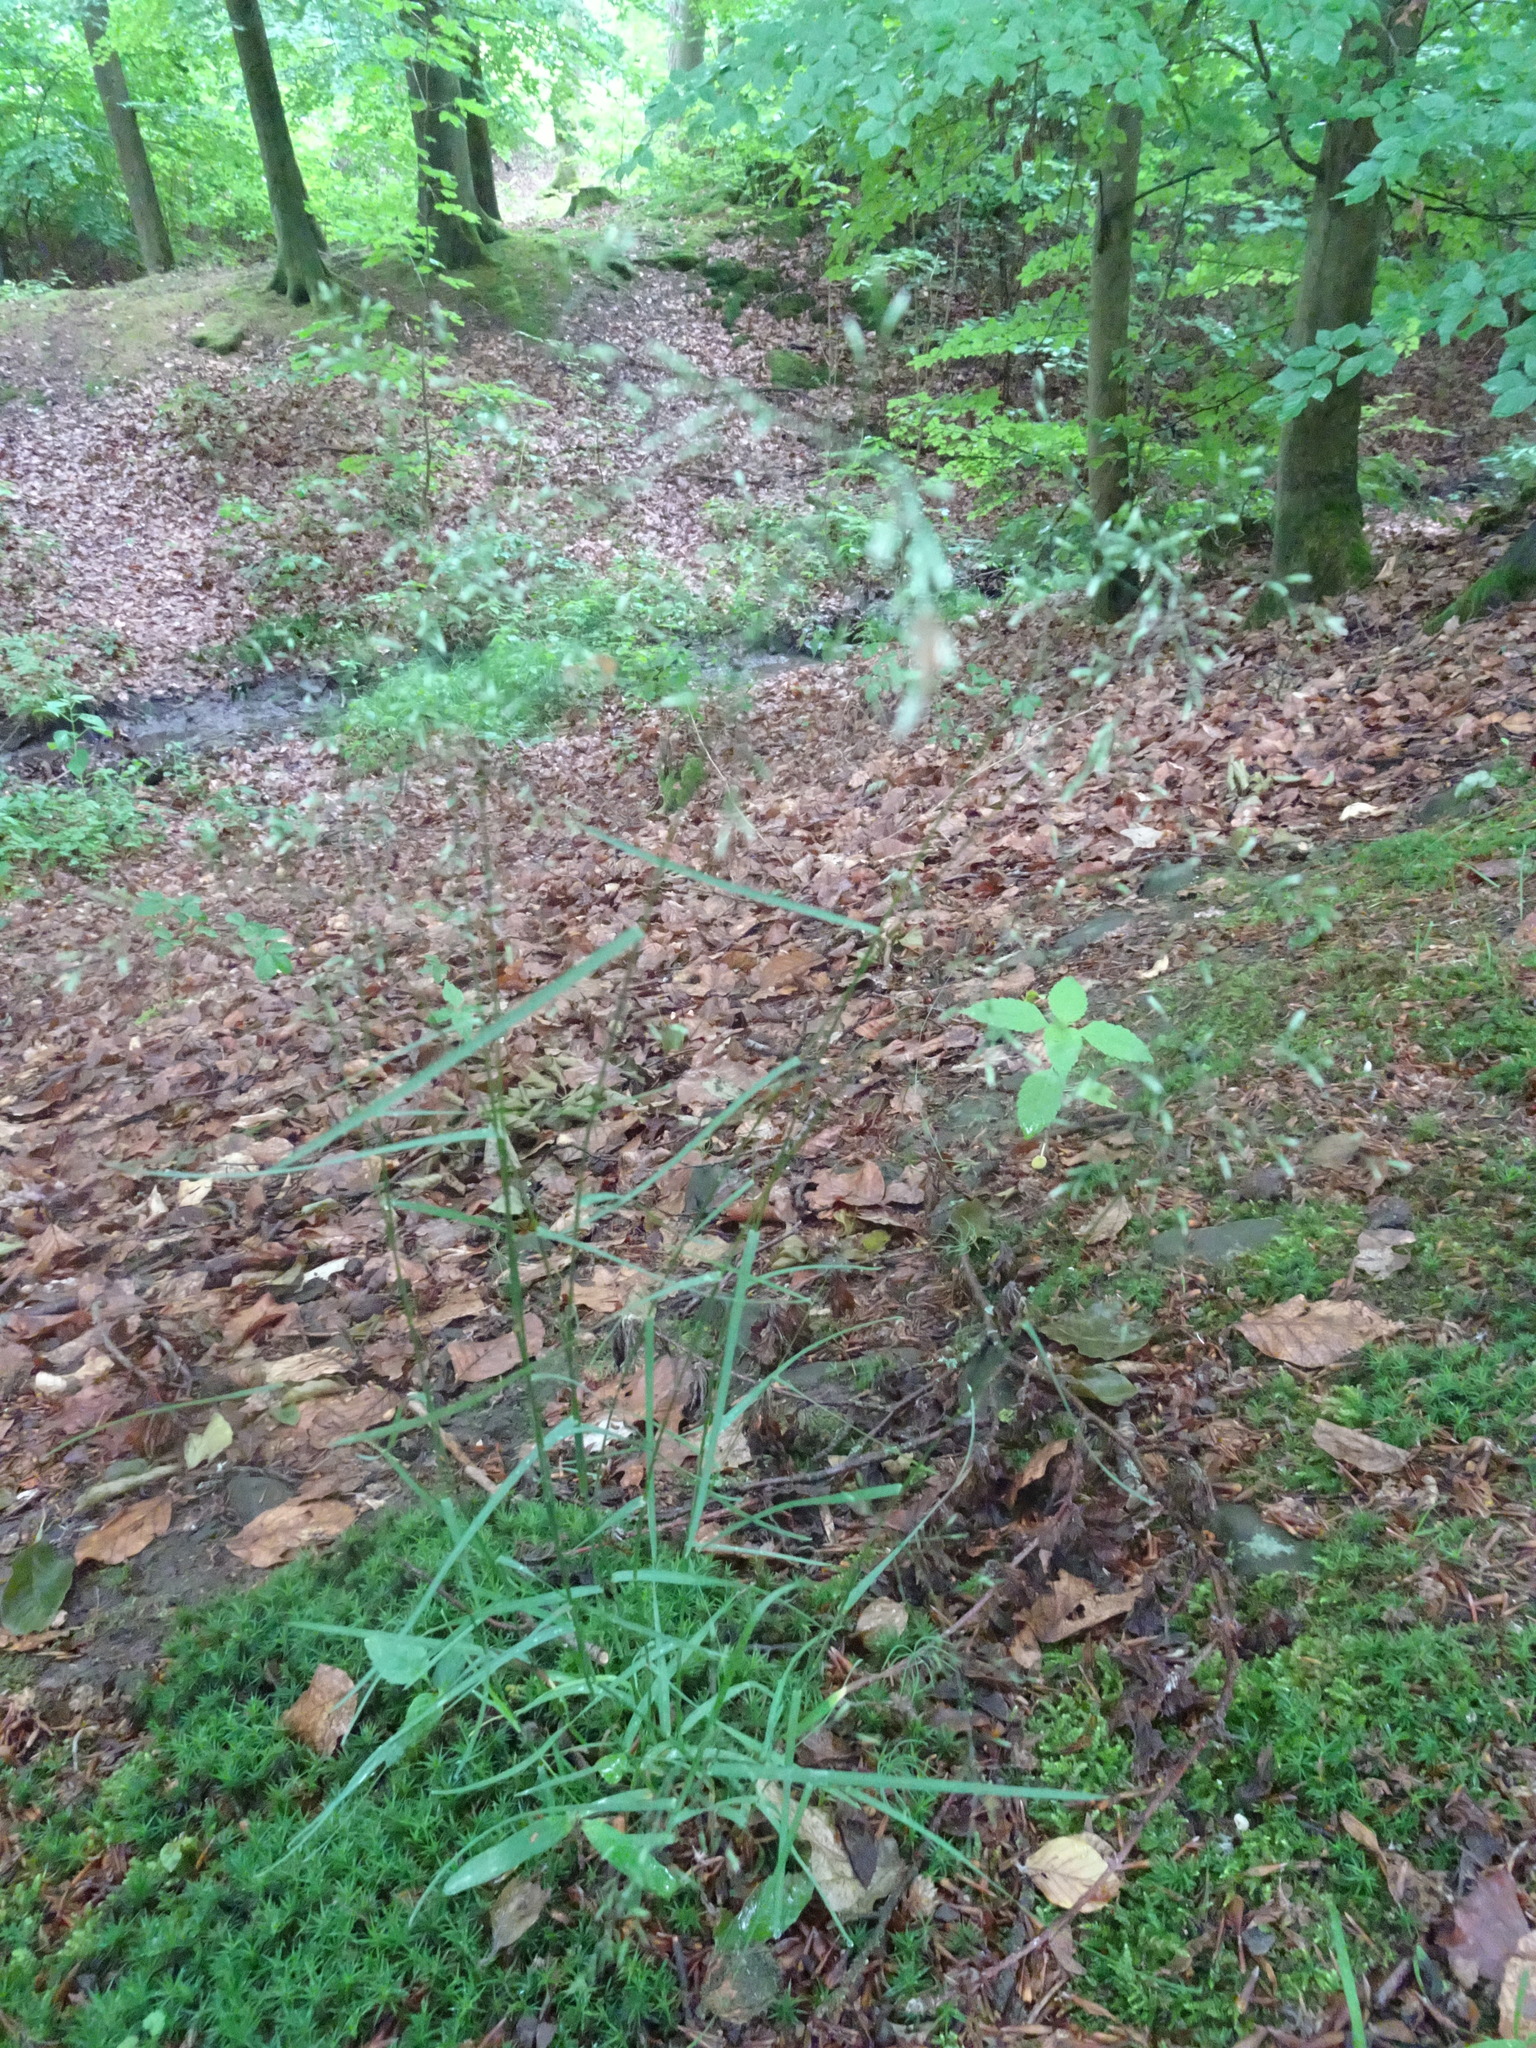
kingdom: Plantae
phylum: Tracheophyta
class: Liliopsida
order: Poales
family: Poaceae
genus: Poa
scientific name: Poa nemoralis
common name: Wood bluegrass
